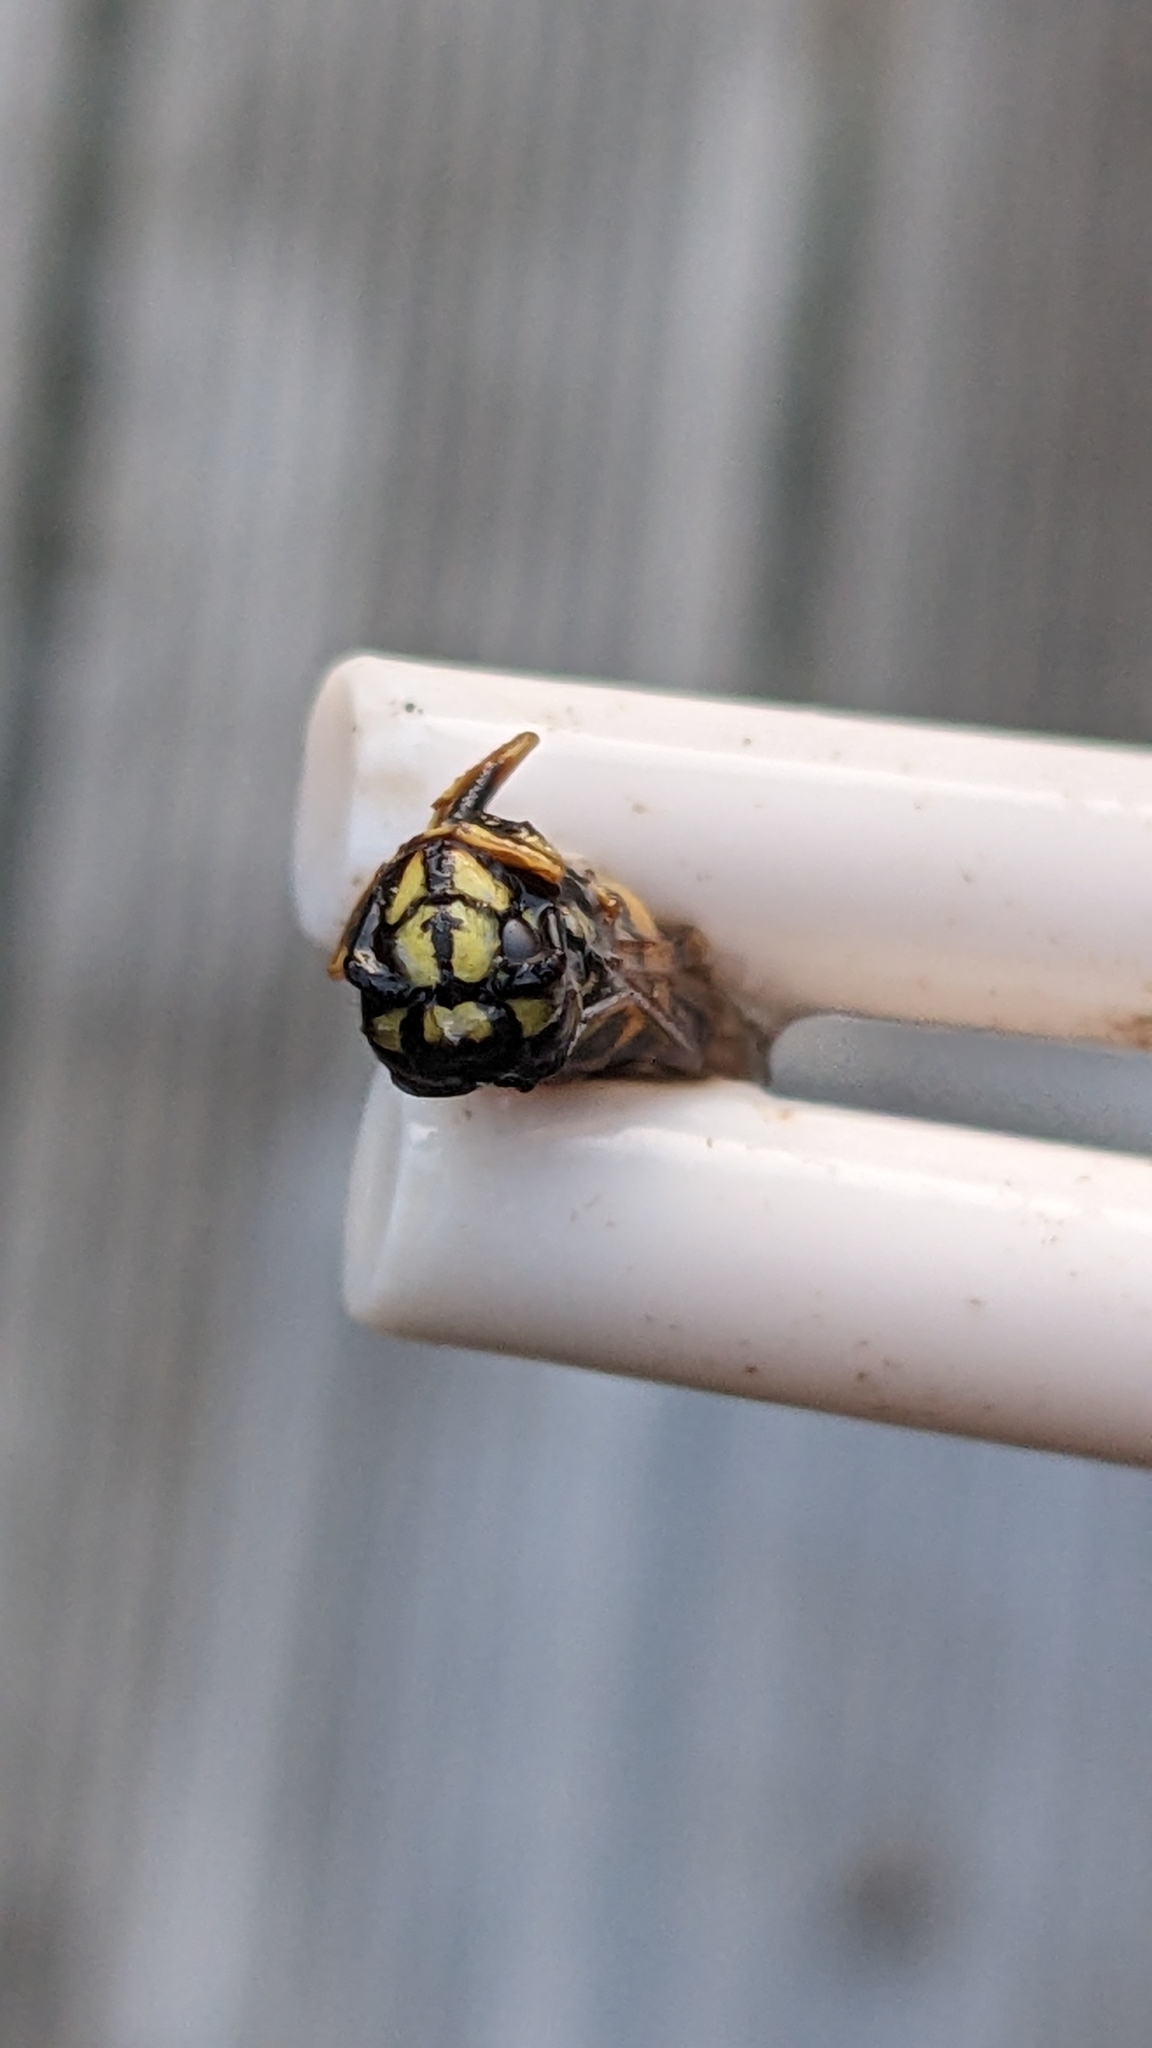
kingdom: Animalia
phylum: Arthropoda
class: Insecta
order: Hymenoptera
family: Vespidae
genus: Vespula
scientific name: Vespula vulgaris
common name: Common wasp
